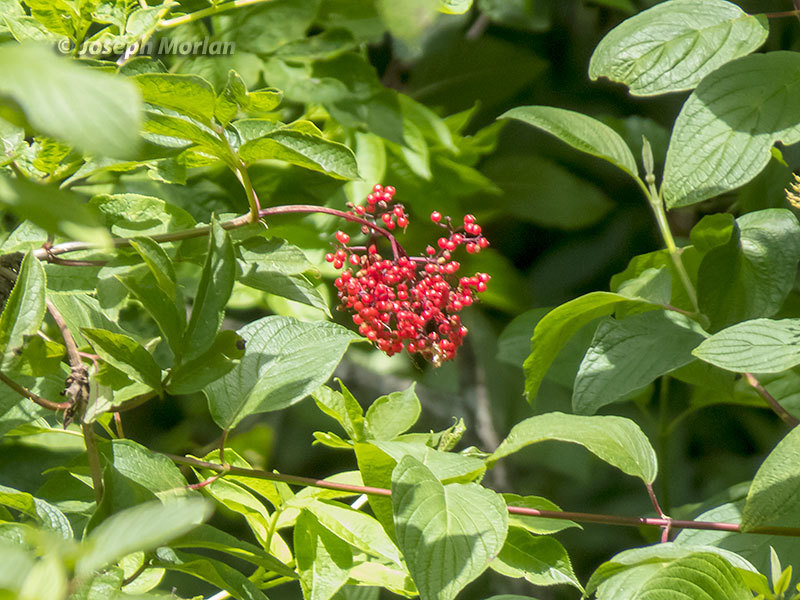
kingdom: Plantae
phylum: Tracheophyta
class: Magnoliopsida
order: Dipsacales
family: Viburnaceae
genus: Sambucus
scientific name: Sambucus racemosa
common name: Red-berried elder
